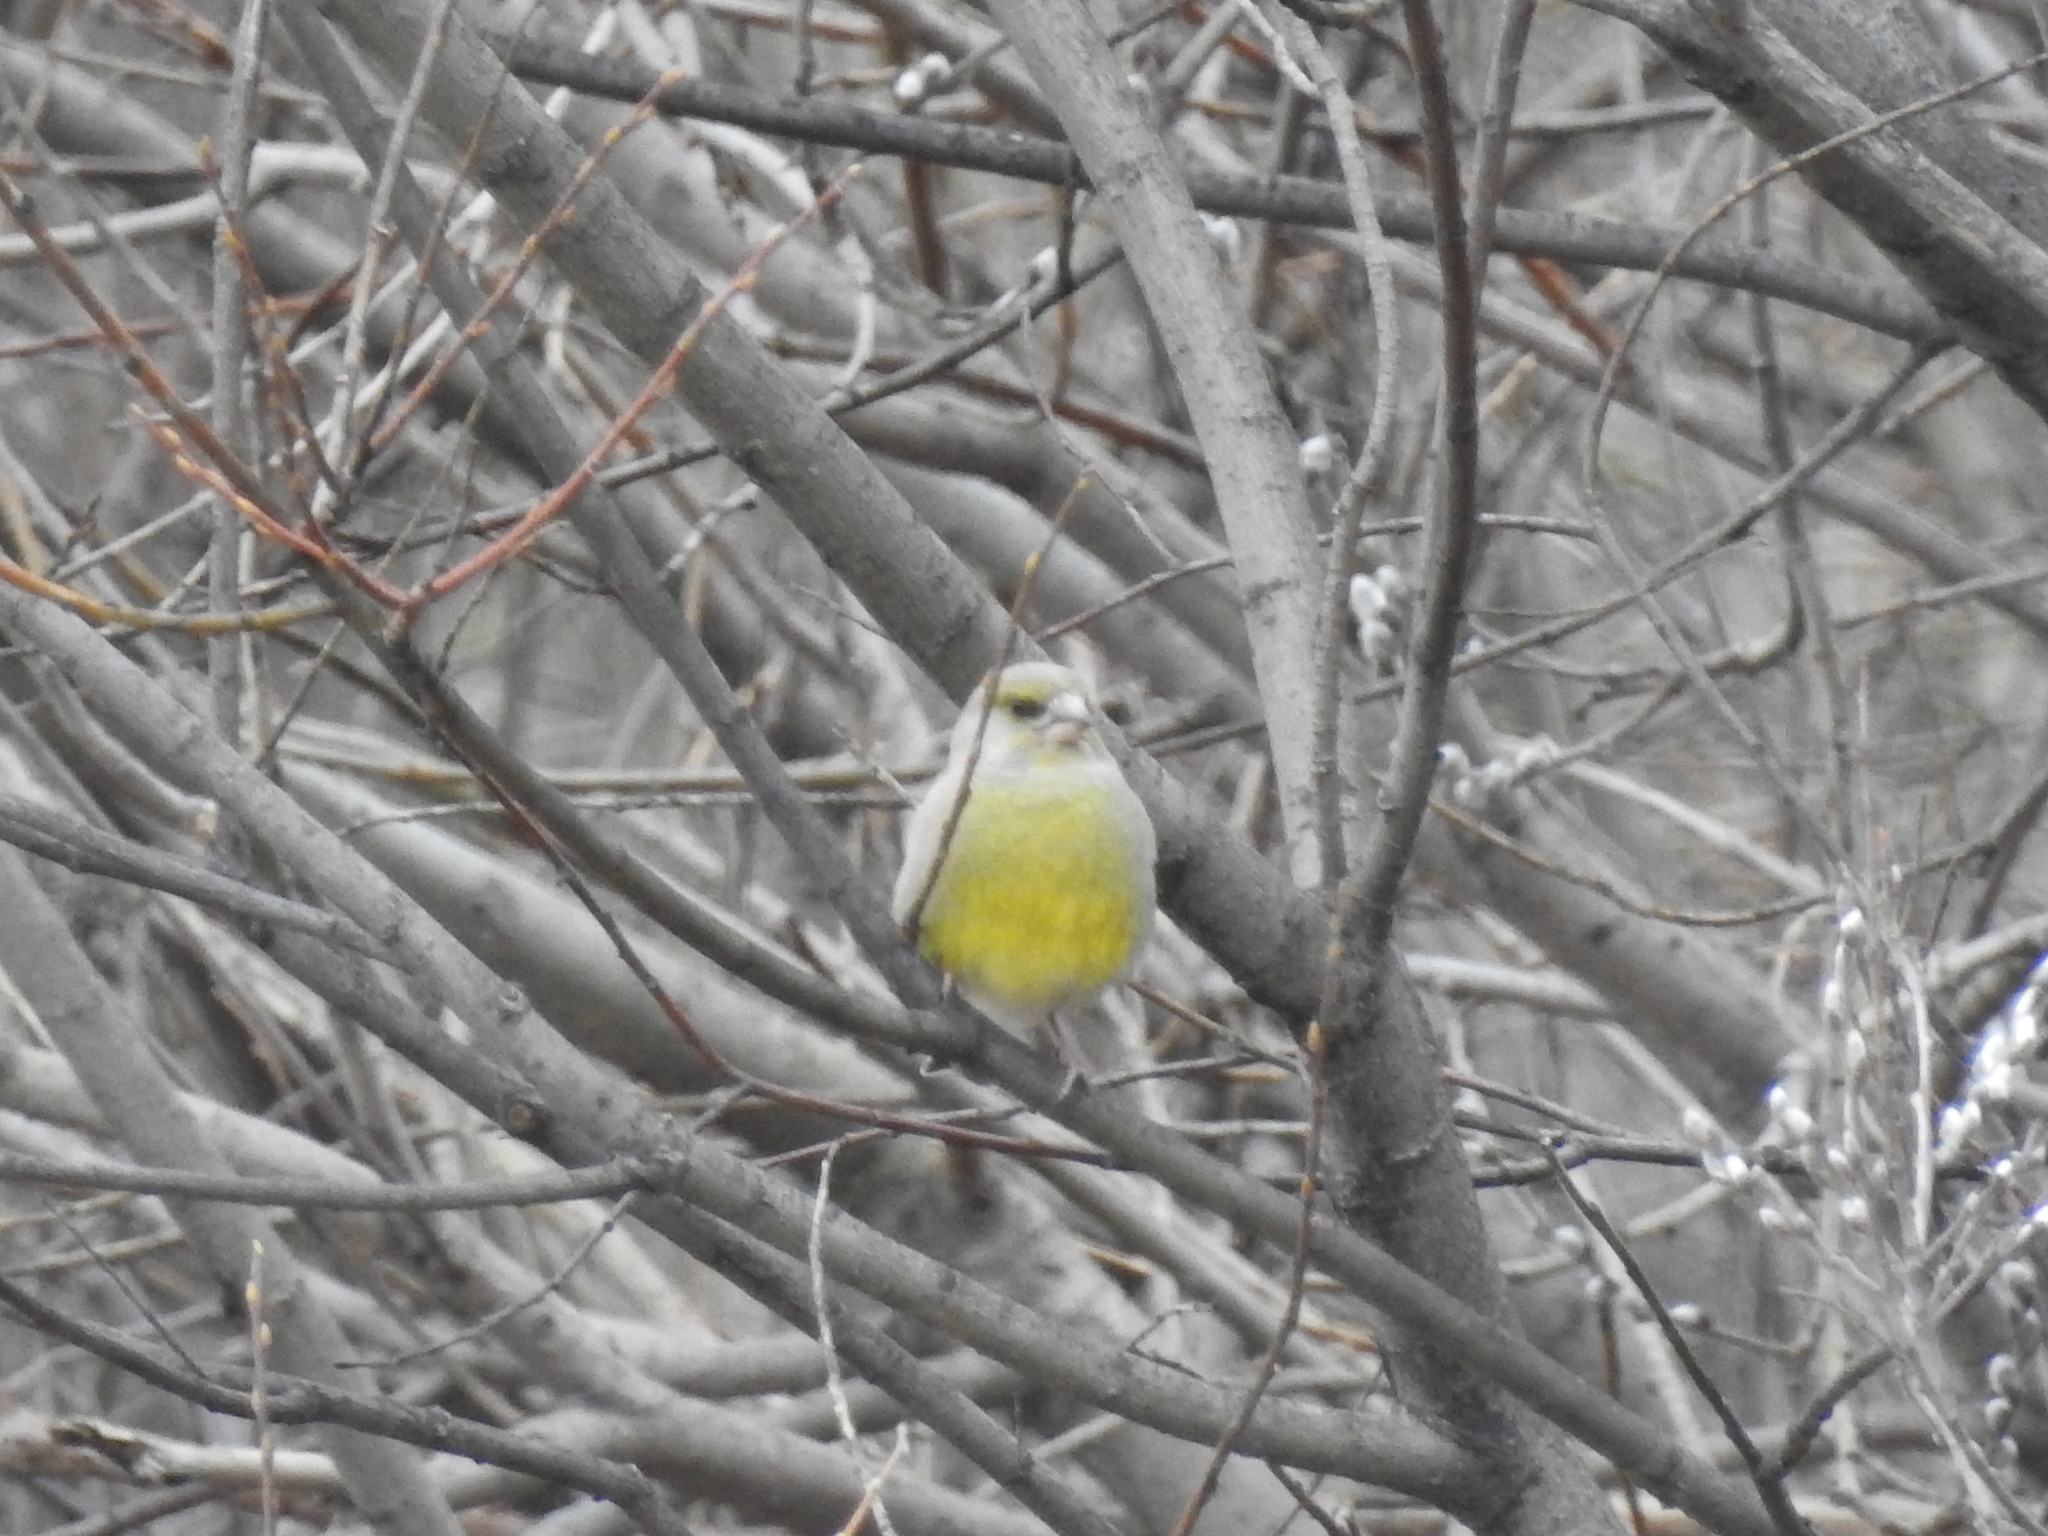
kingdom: Plantae
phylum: Tracheophyta
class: Liliopsida
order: Poales
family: Poaceae
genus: Chloris
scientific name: Chloris chloris
